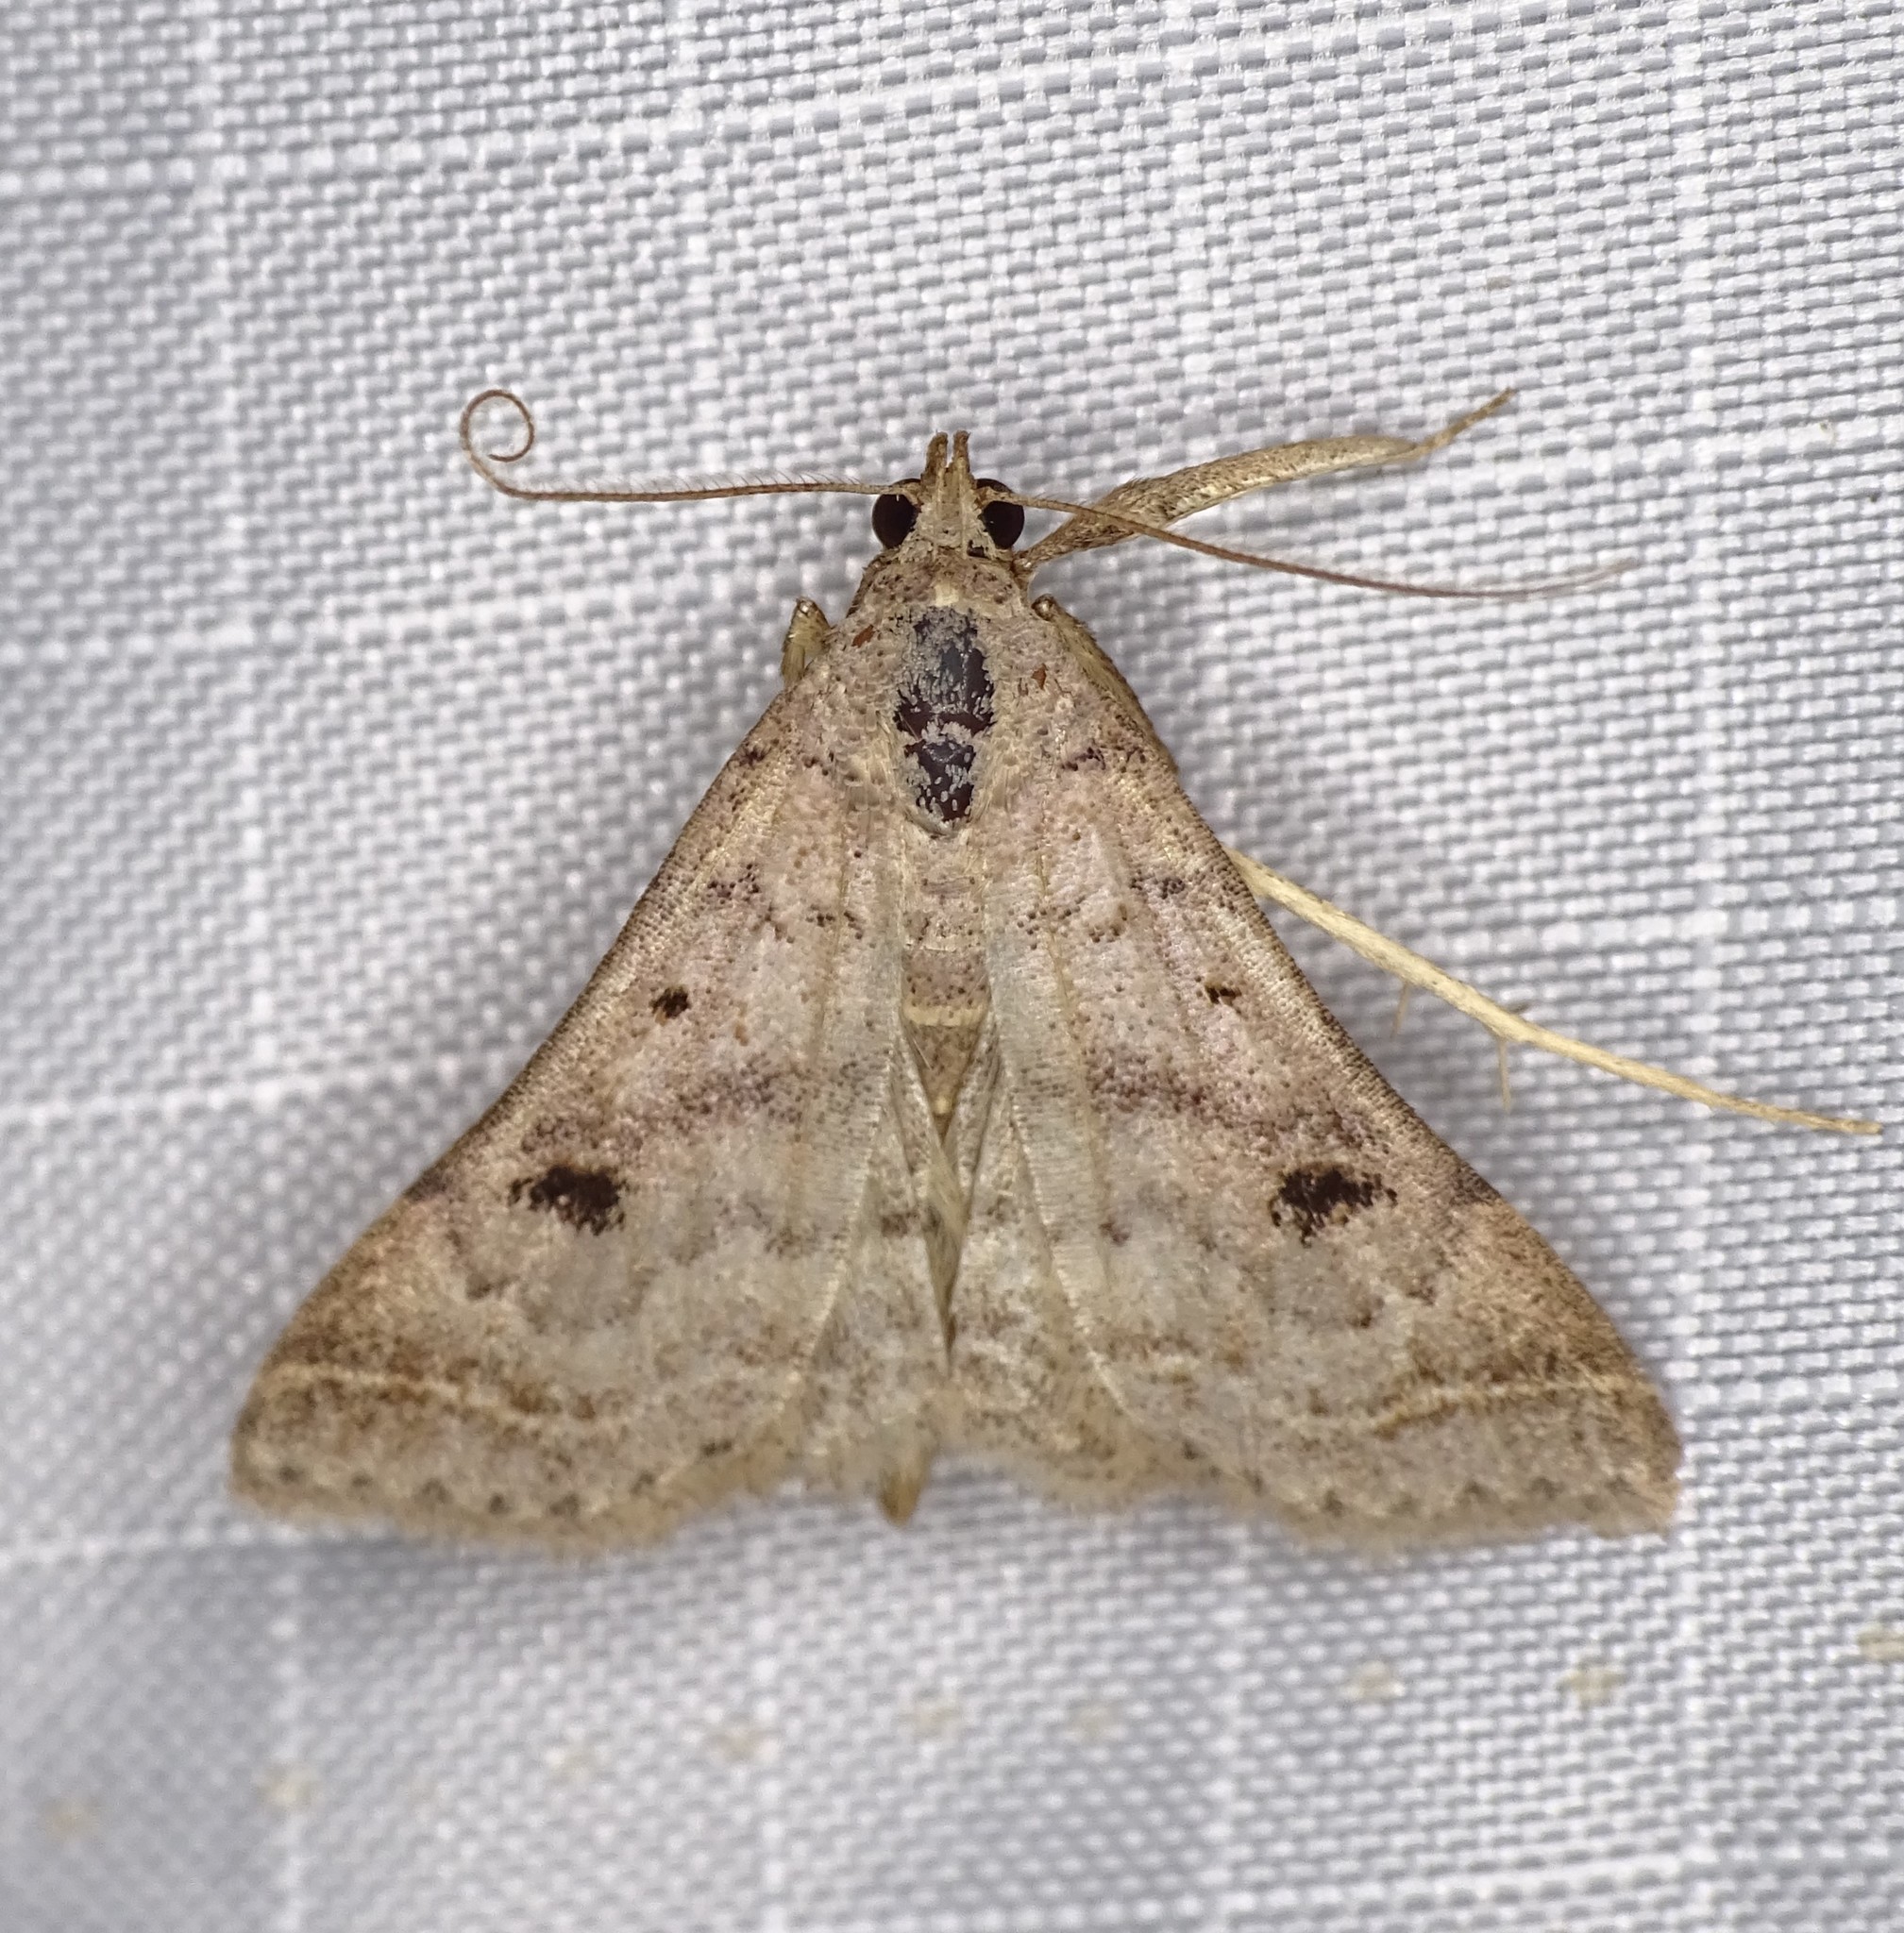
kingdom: Animalia
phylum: Arthropoda
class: Insecta
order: Lepidoptera
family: Erebidae
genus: Bleptina
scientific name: Bleptina caradrinalis
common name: Bent-winged owlet
